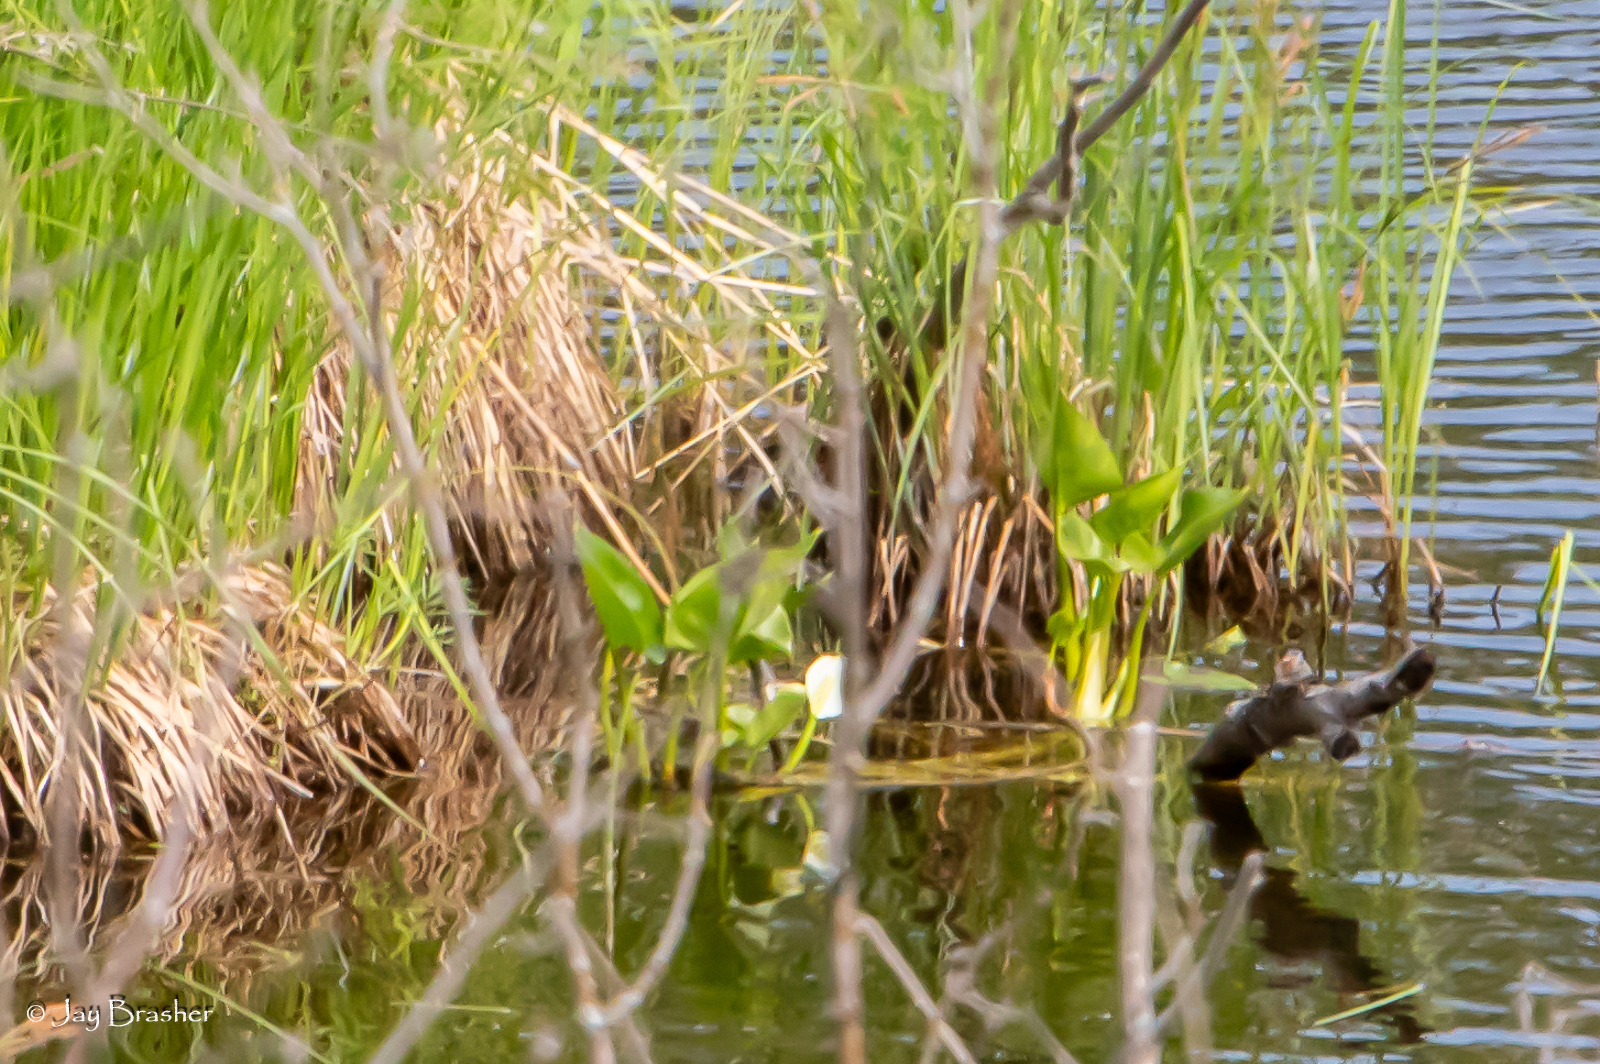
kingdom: Plantae
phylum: Tracheophyta
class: Liliopsida
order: Alismatales
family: Araceae
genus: Calla
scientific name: Calla palustris
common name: Bog arum
